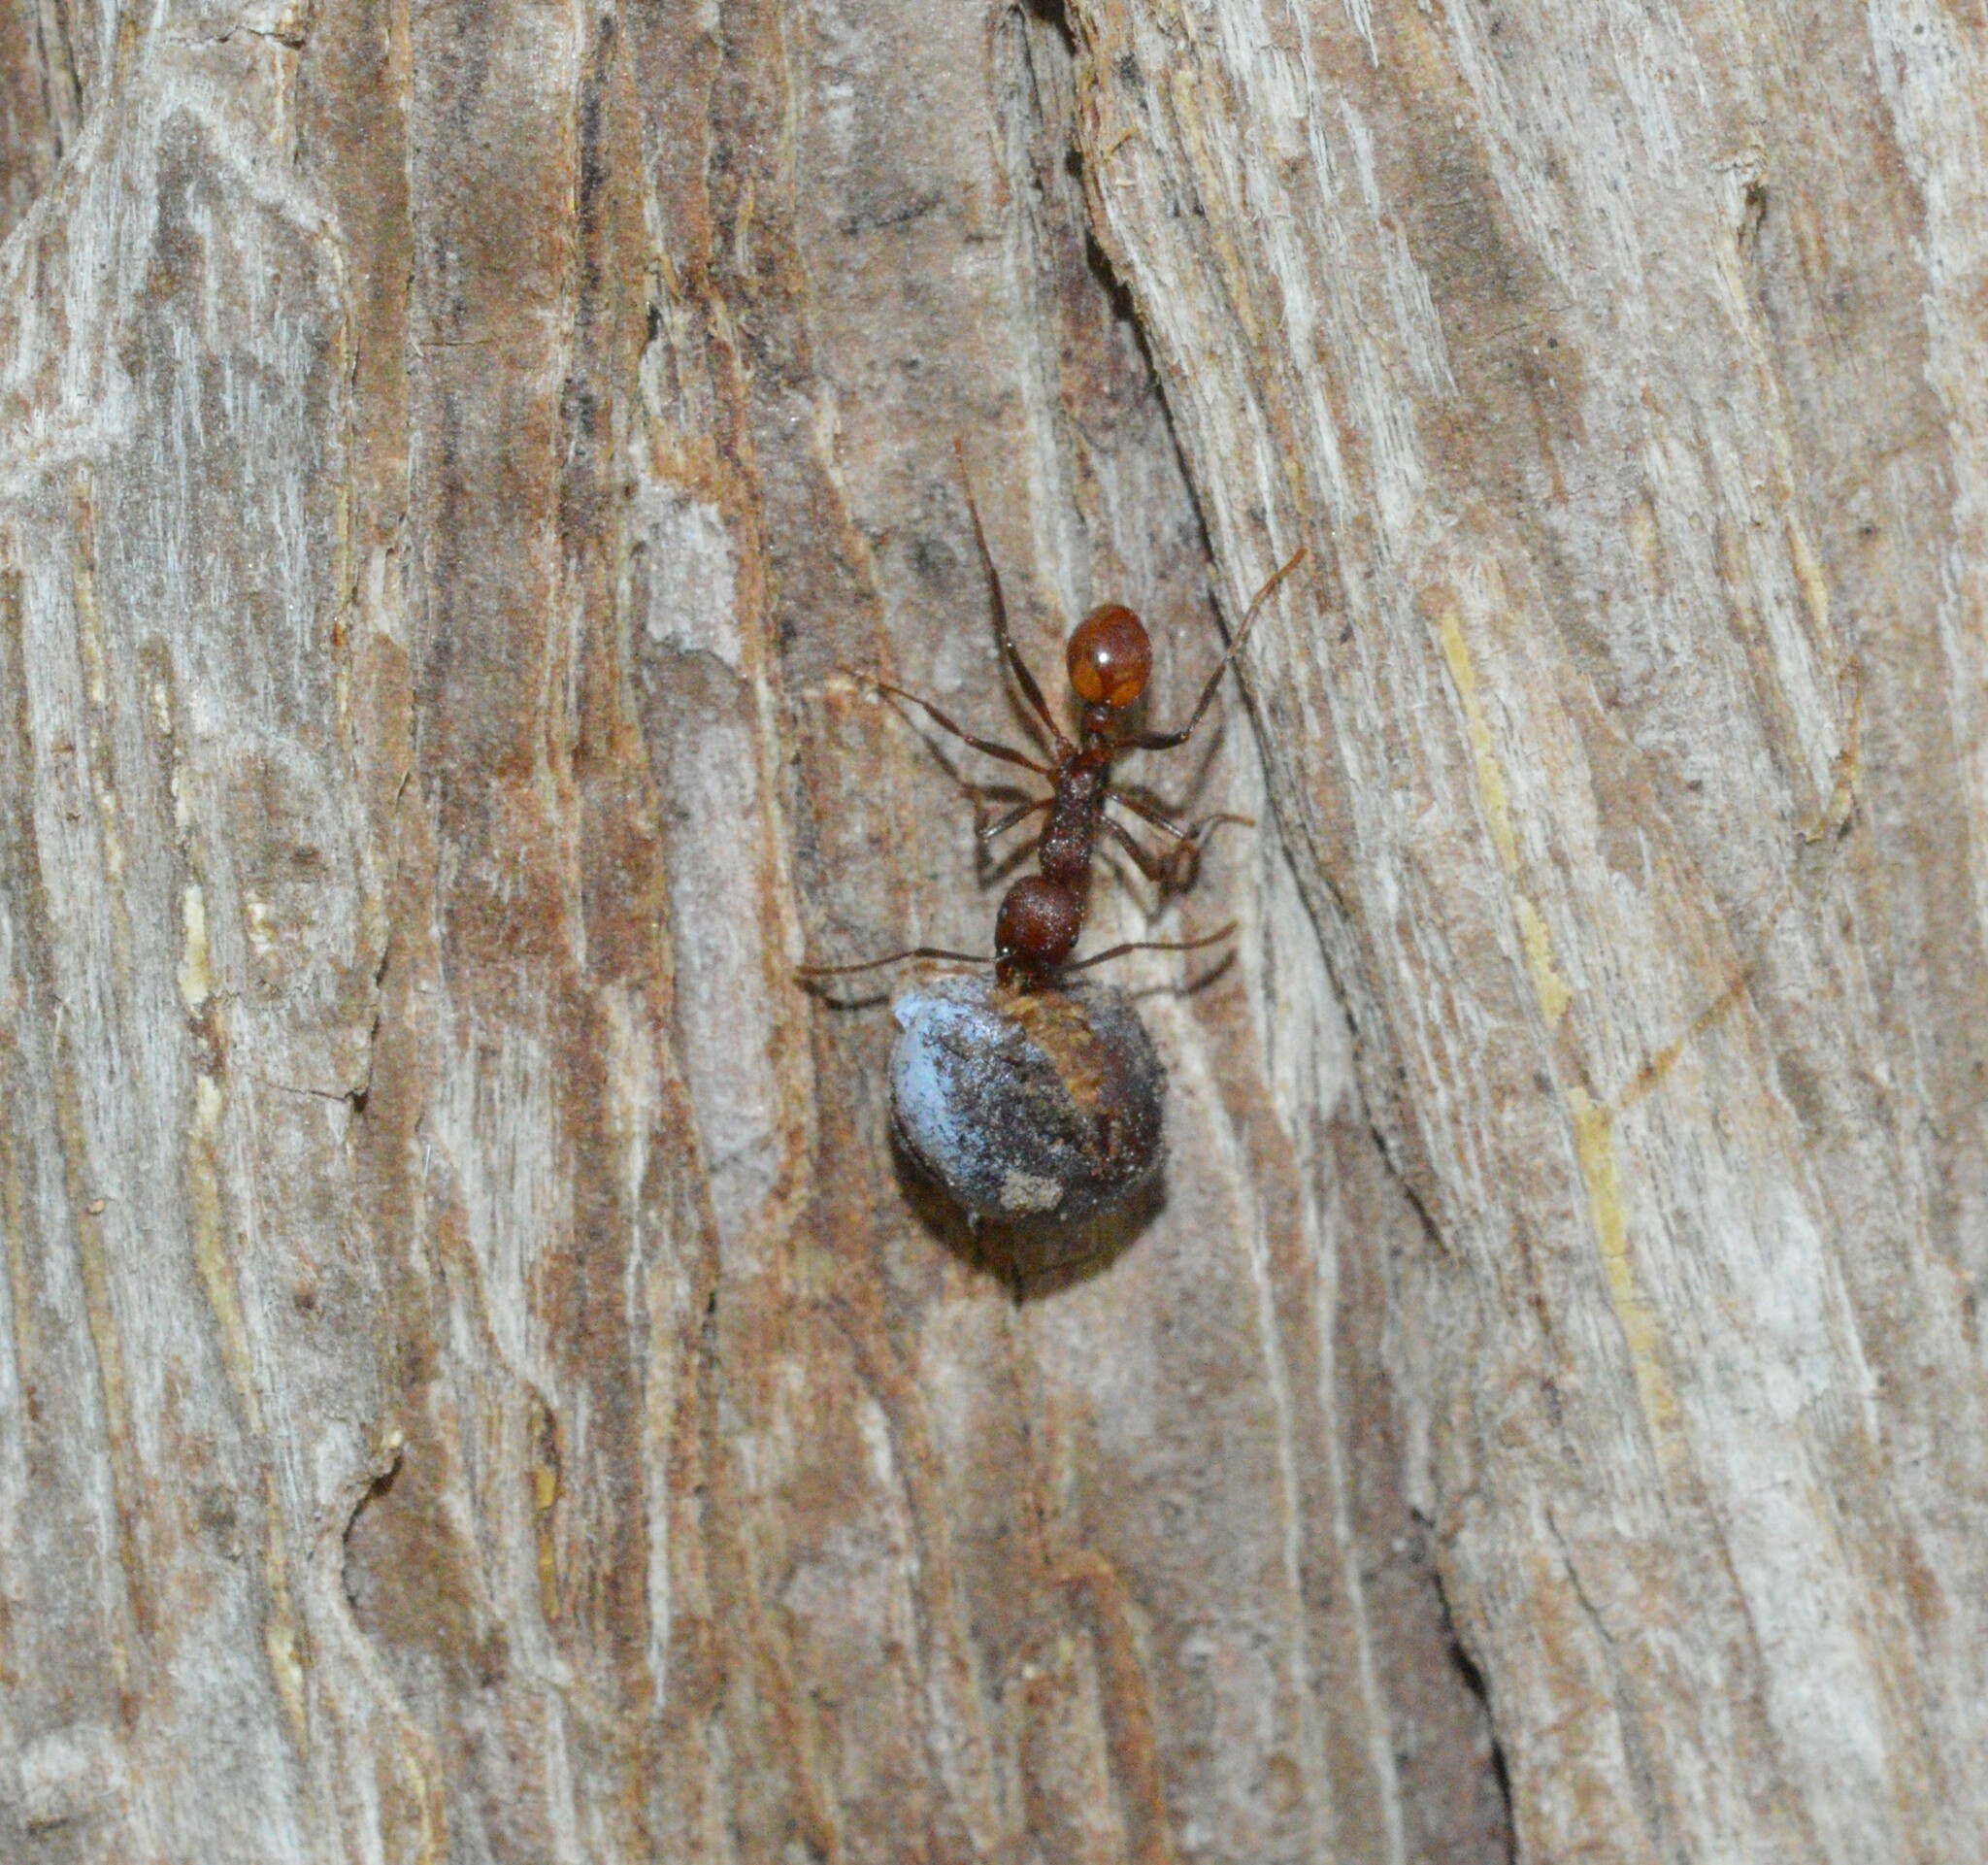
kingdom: Animalia
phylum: Arthropoda
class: Insecta
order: Hymenoptera
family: Formicidae
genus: Aphaenogaster
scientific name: Aphaenogaster tennesseensis
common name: Tennessee thread-waisted ant
